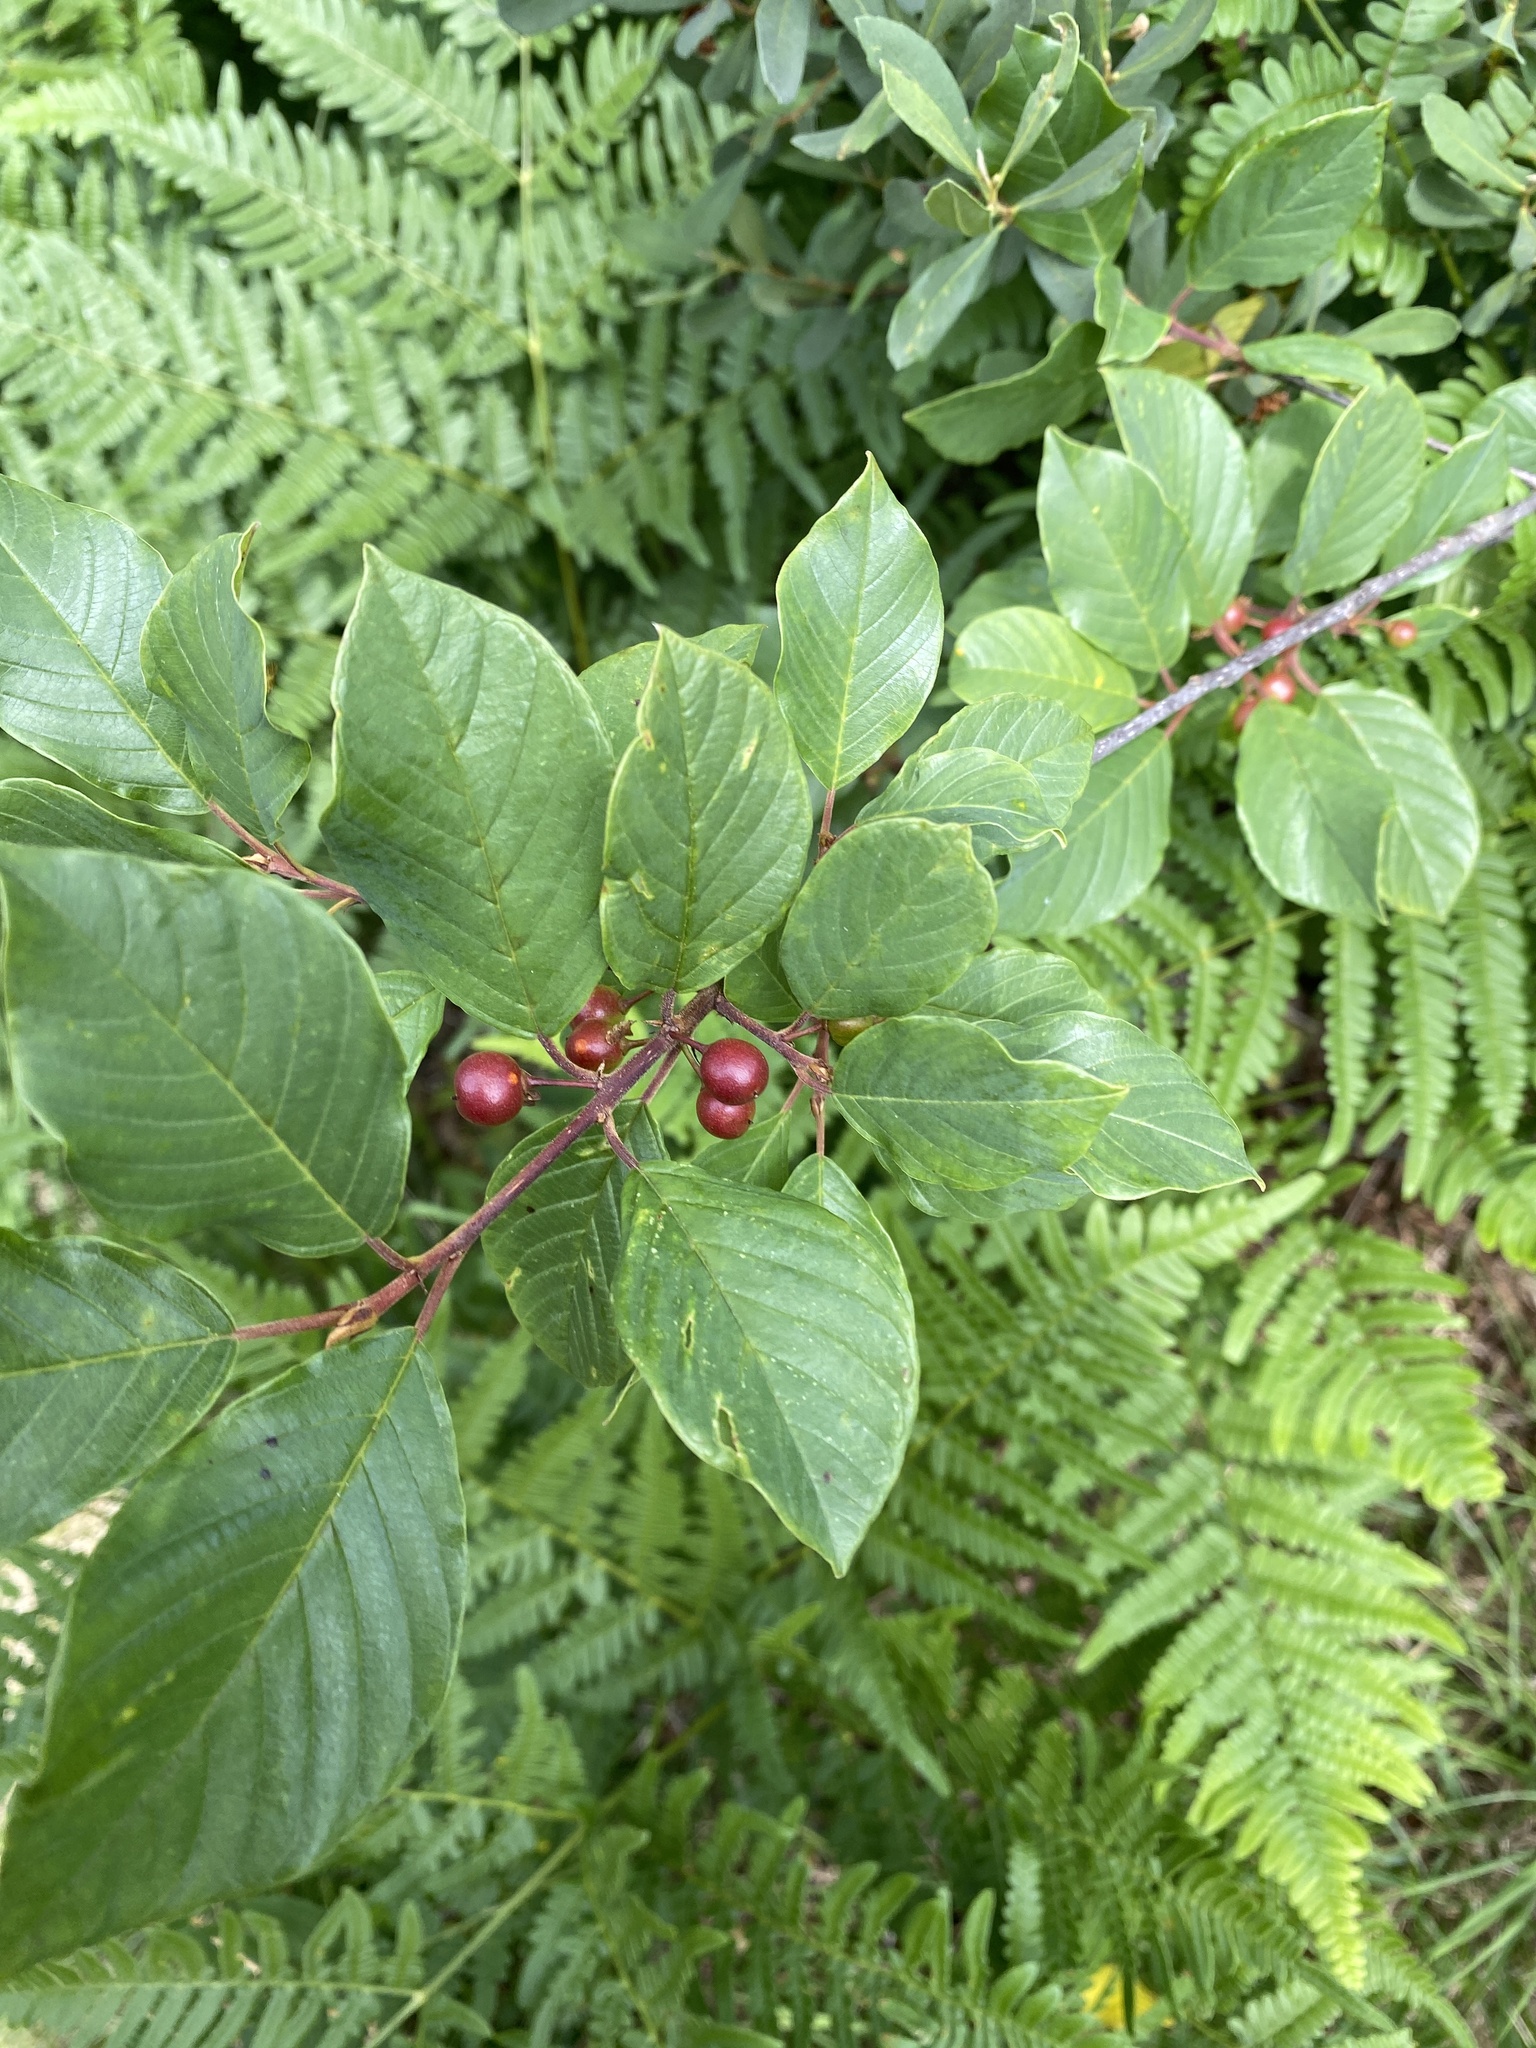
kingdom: Plantae
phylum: Tracheophyta
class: Magnoliopsida
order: Rosales
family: Rhamnaceae
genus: Frangula
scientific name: Frangula alnus
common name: Alder buckthorn
